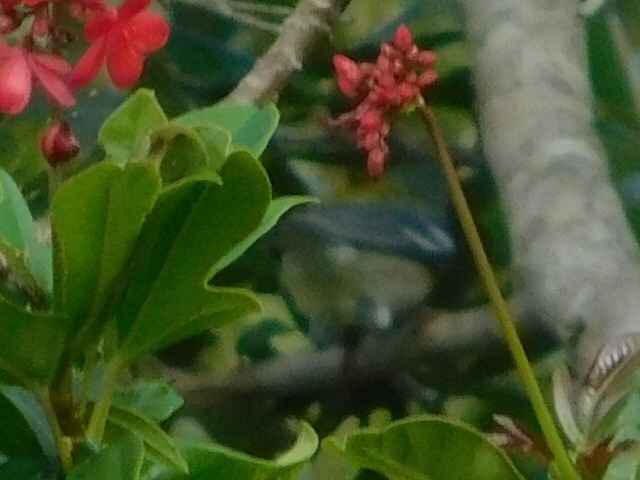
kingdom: Animalia
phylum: Chordata
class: Aves
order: Passeriformes
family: Parulidae
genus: Setophaga
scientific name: Setophaga americana
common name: Northern parula
